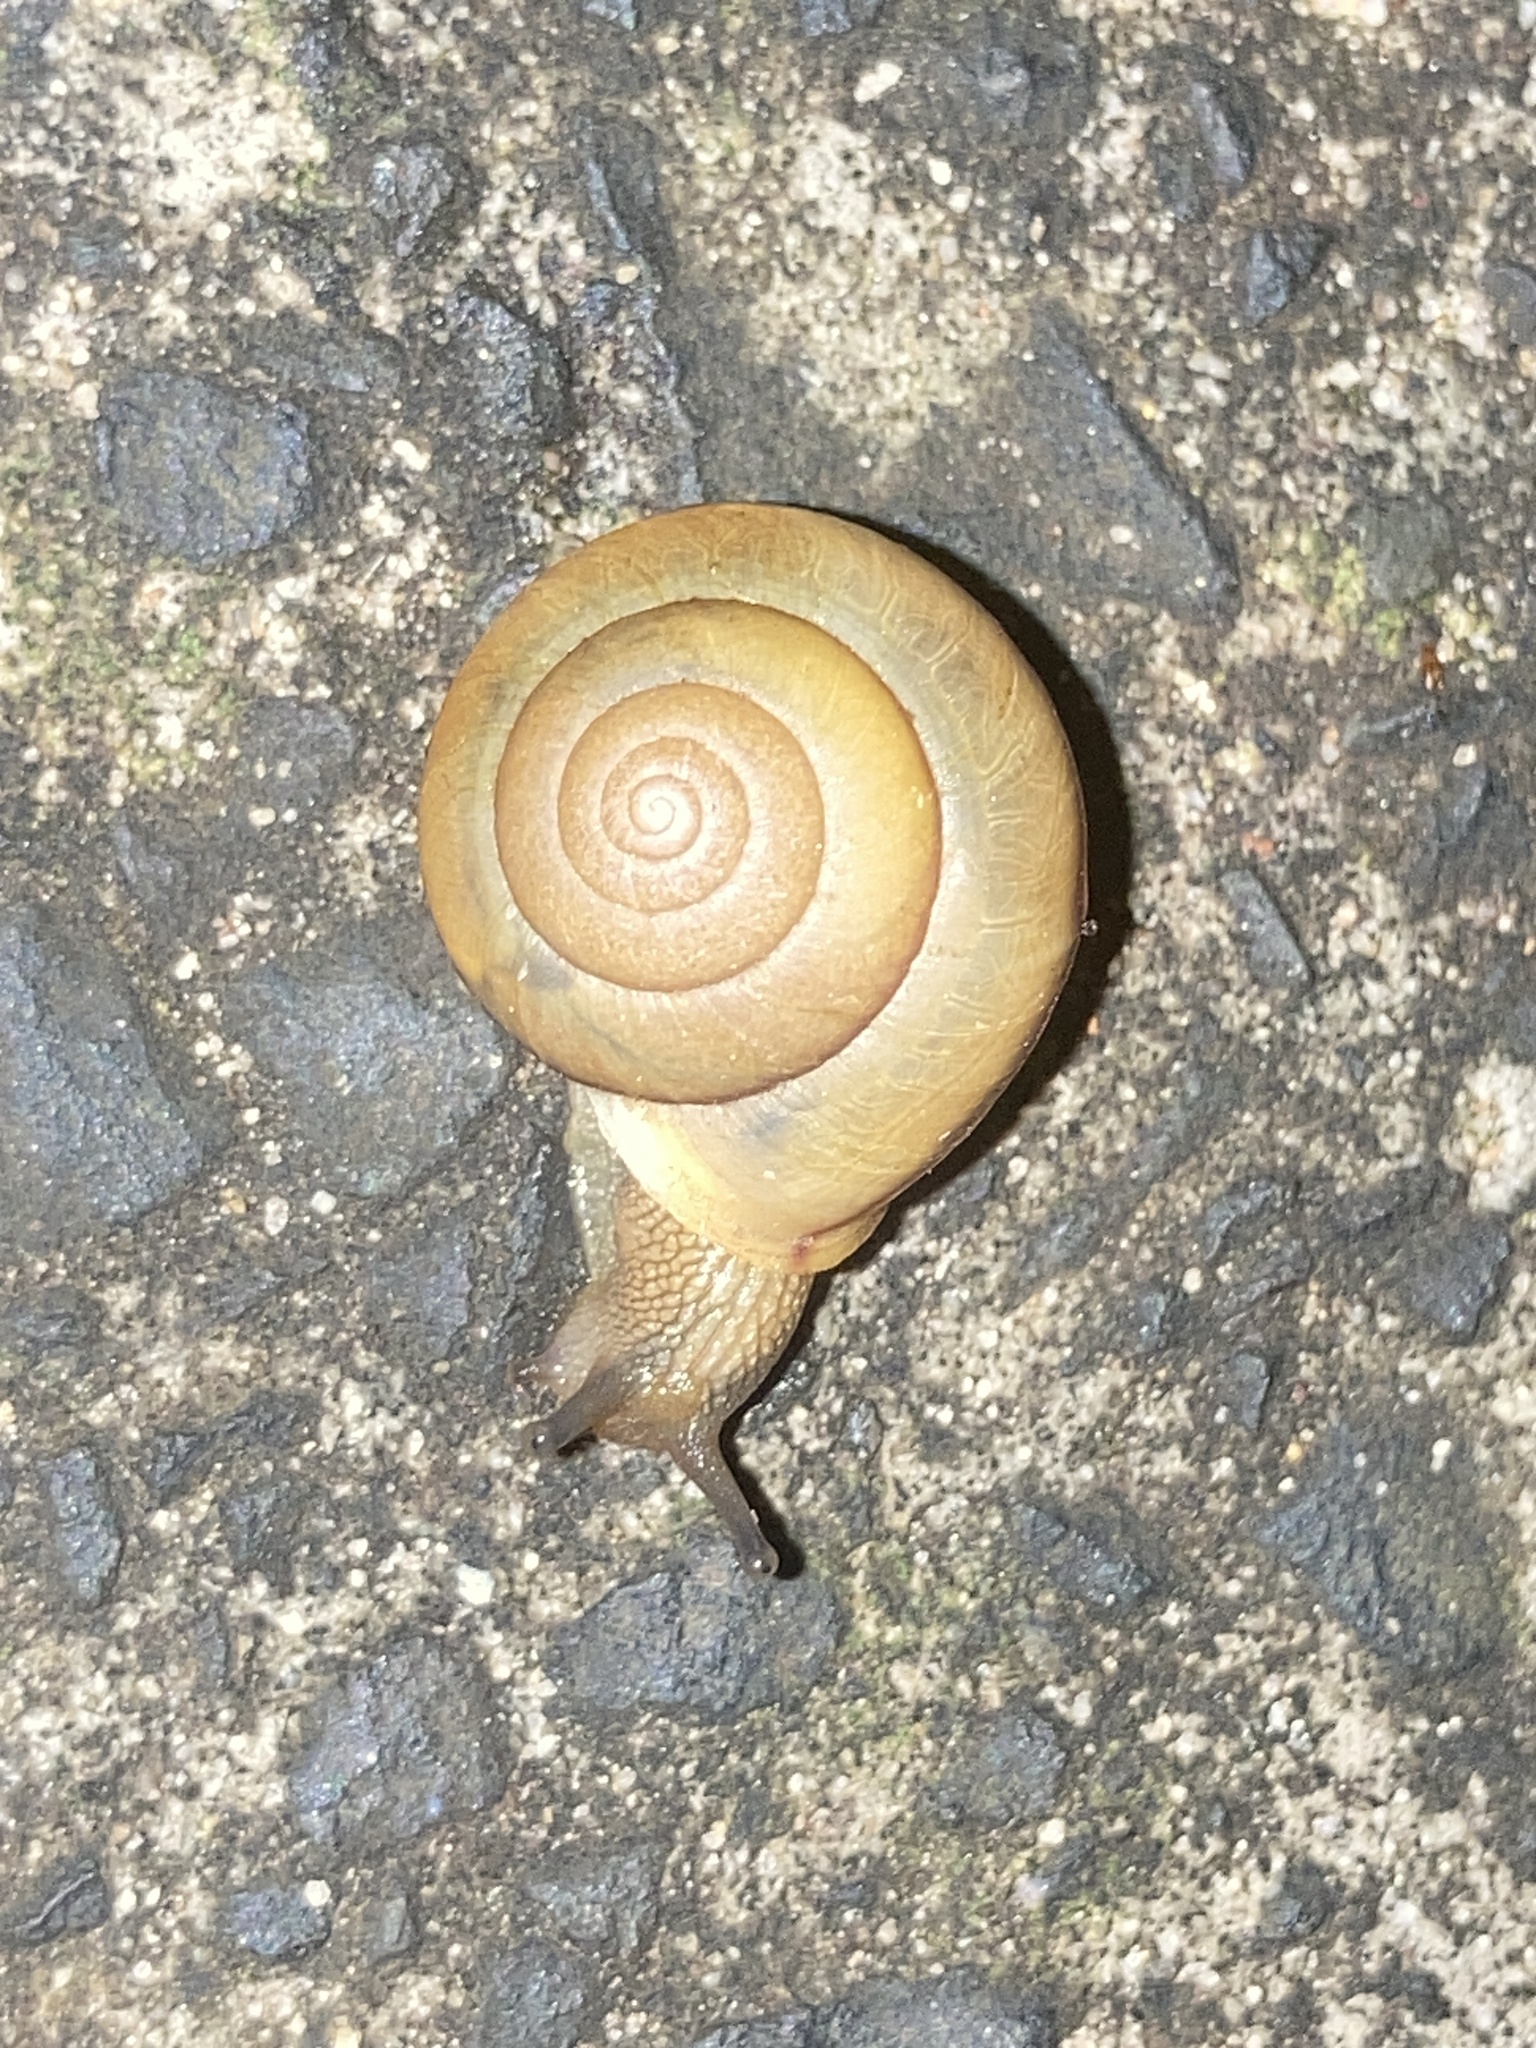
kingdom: Animalia
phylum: Mollusca
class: Gastropoda
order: Stylommatophora
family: Camaenidae
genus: Bradybaena
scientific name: Bradybaena similaris
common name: Asian trampsnail
